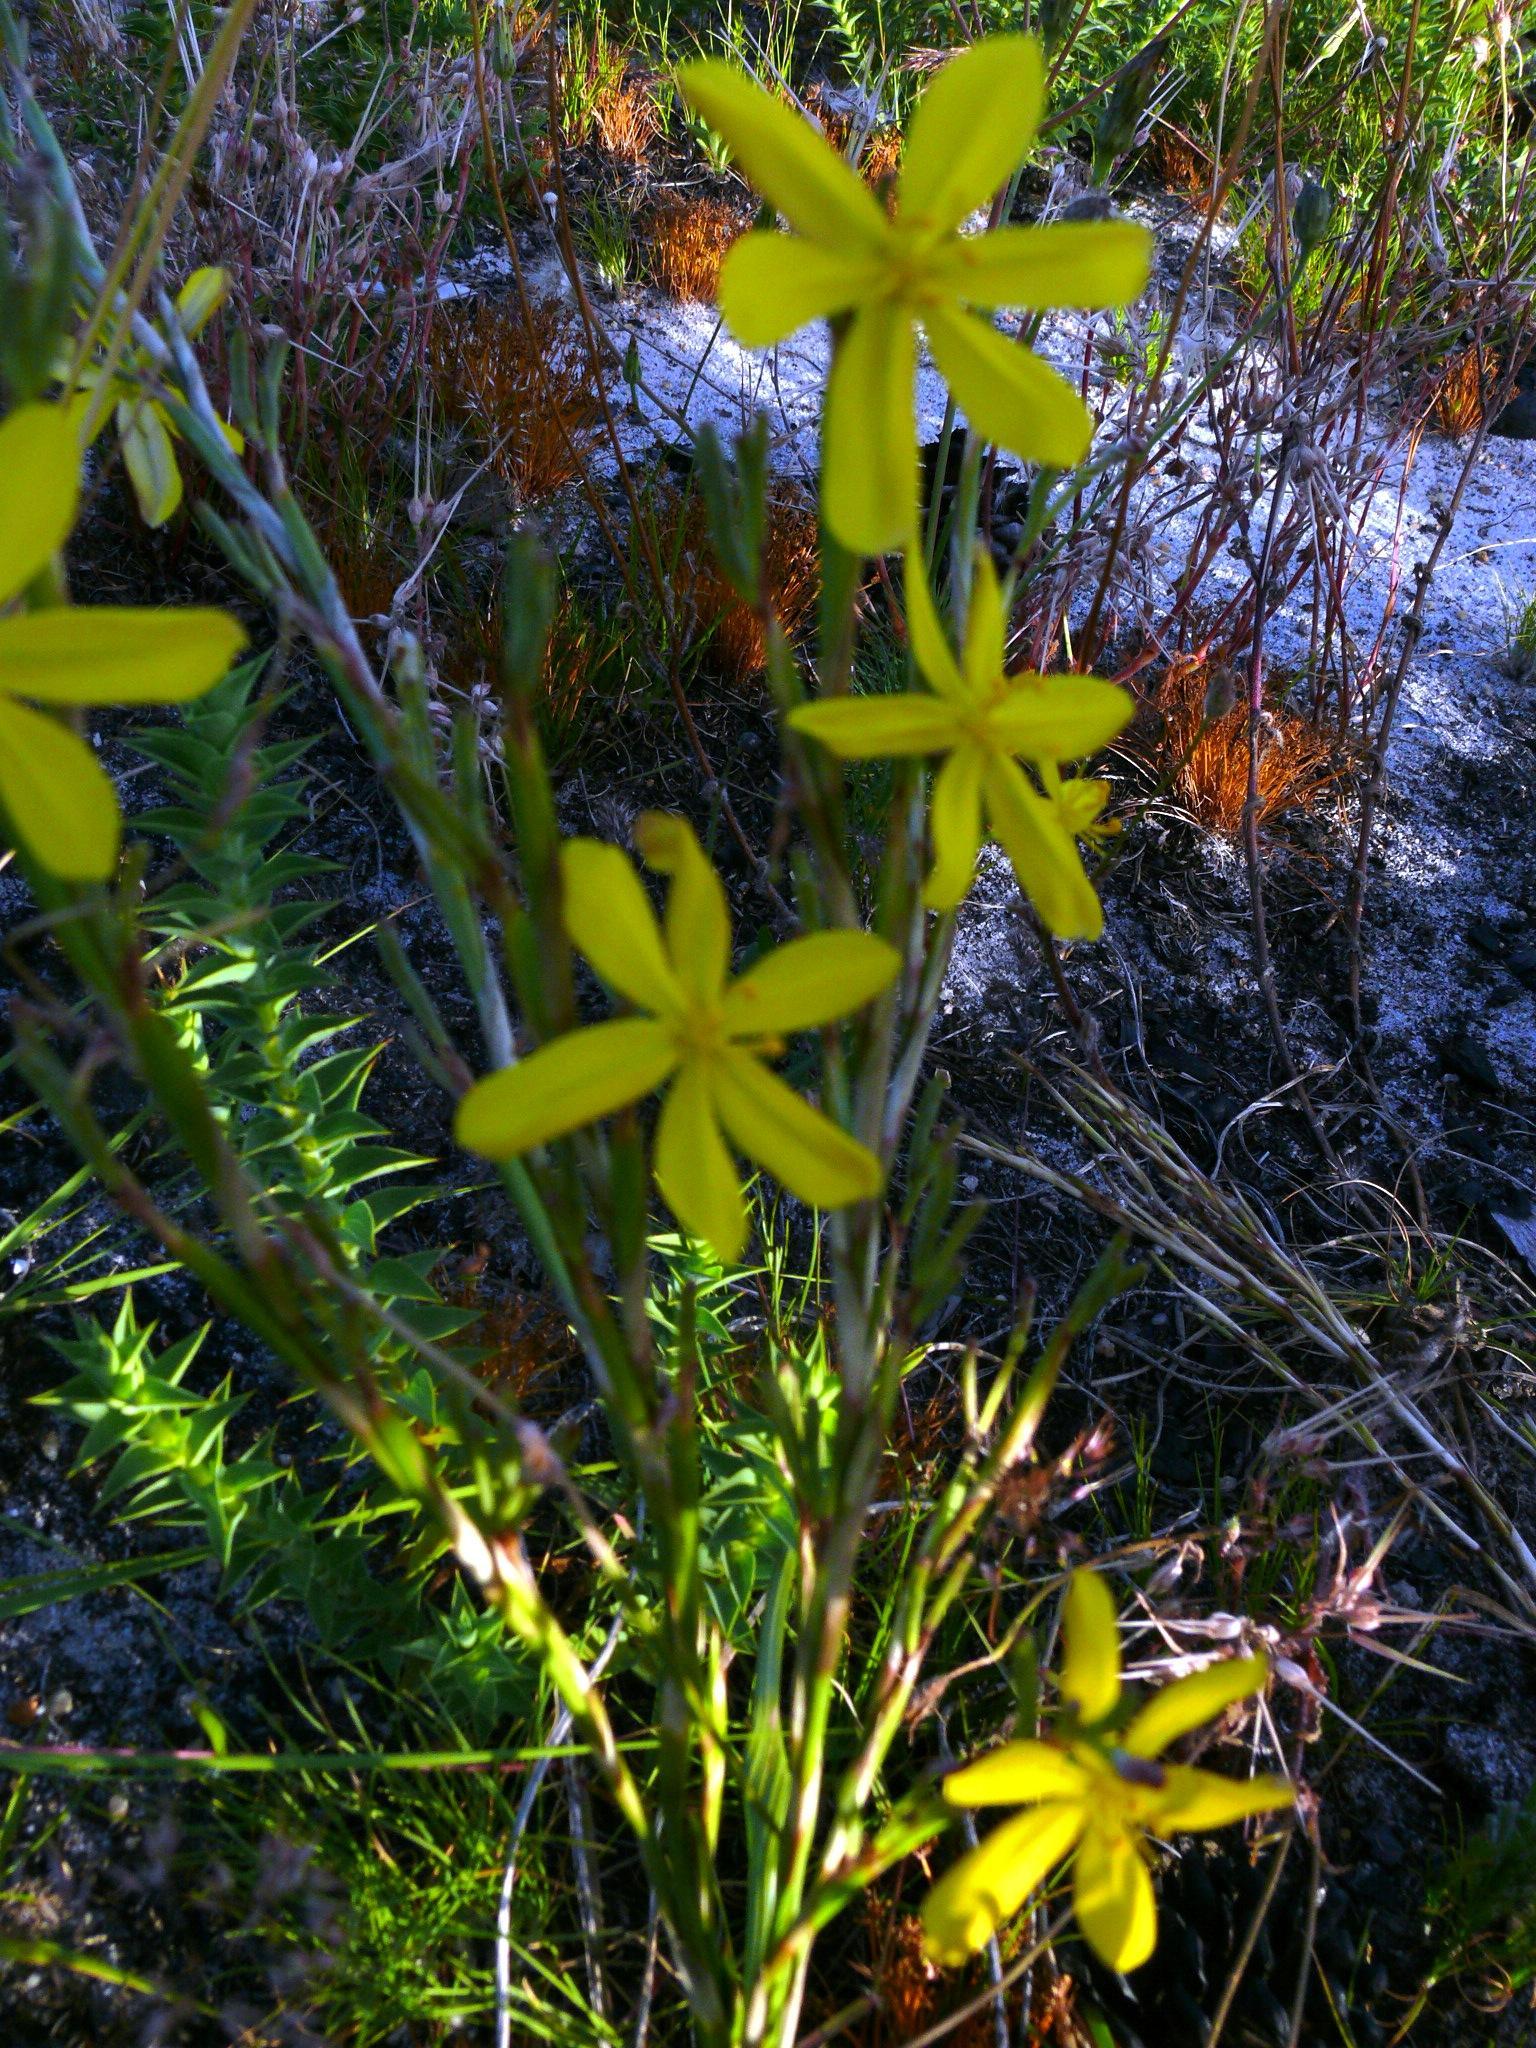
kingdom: Plantae
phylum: Tracheophyta
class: Liliopsida
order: Asparagales
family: Iridaceae
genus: Moraea
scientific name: Moraea lewisiae
